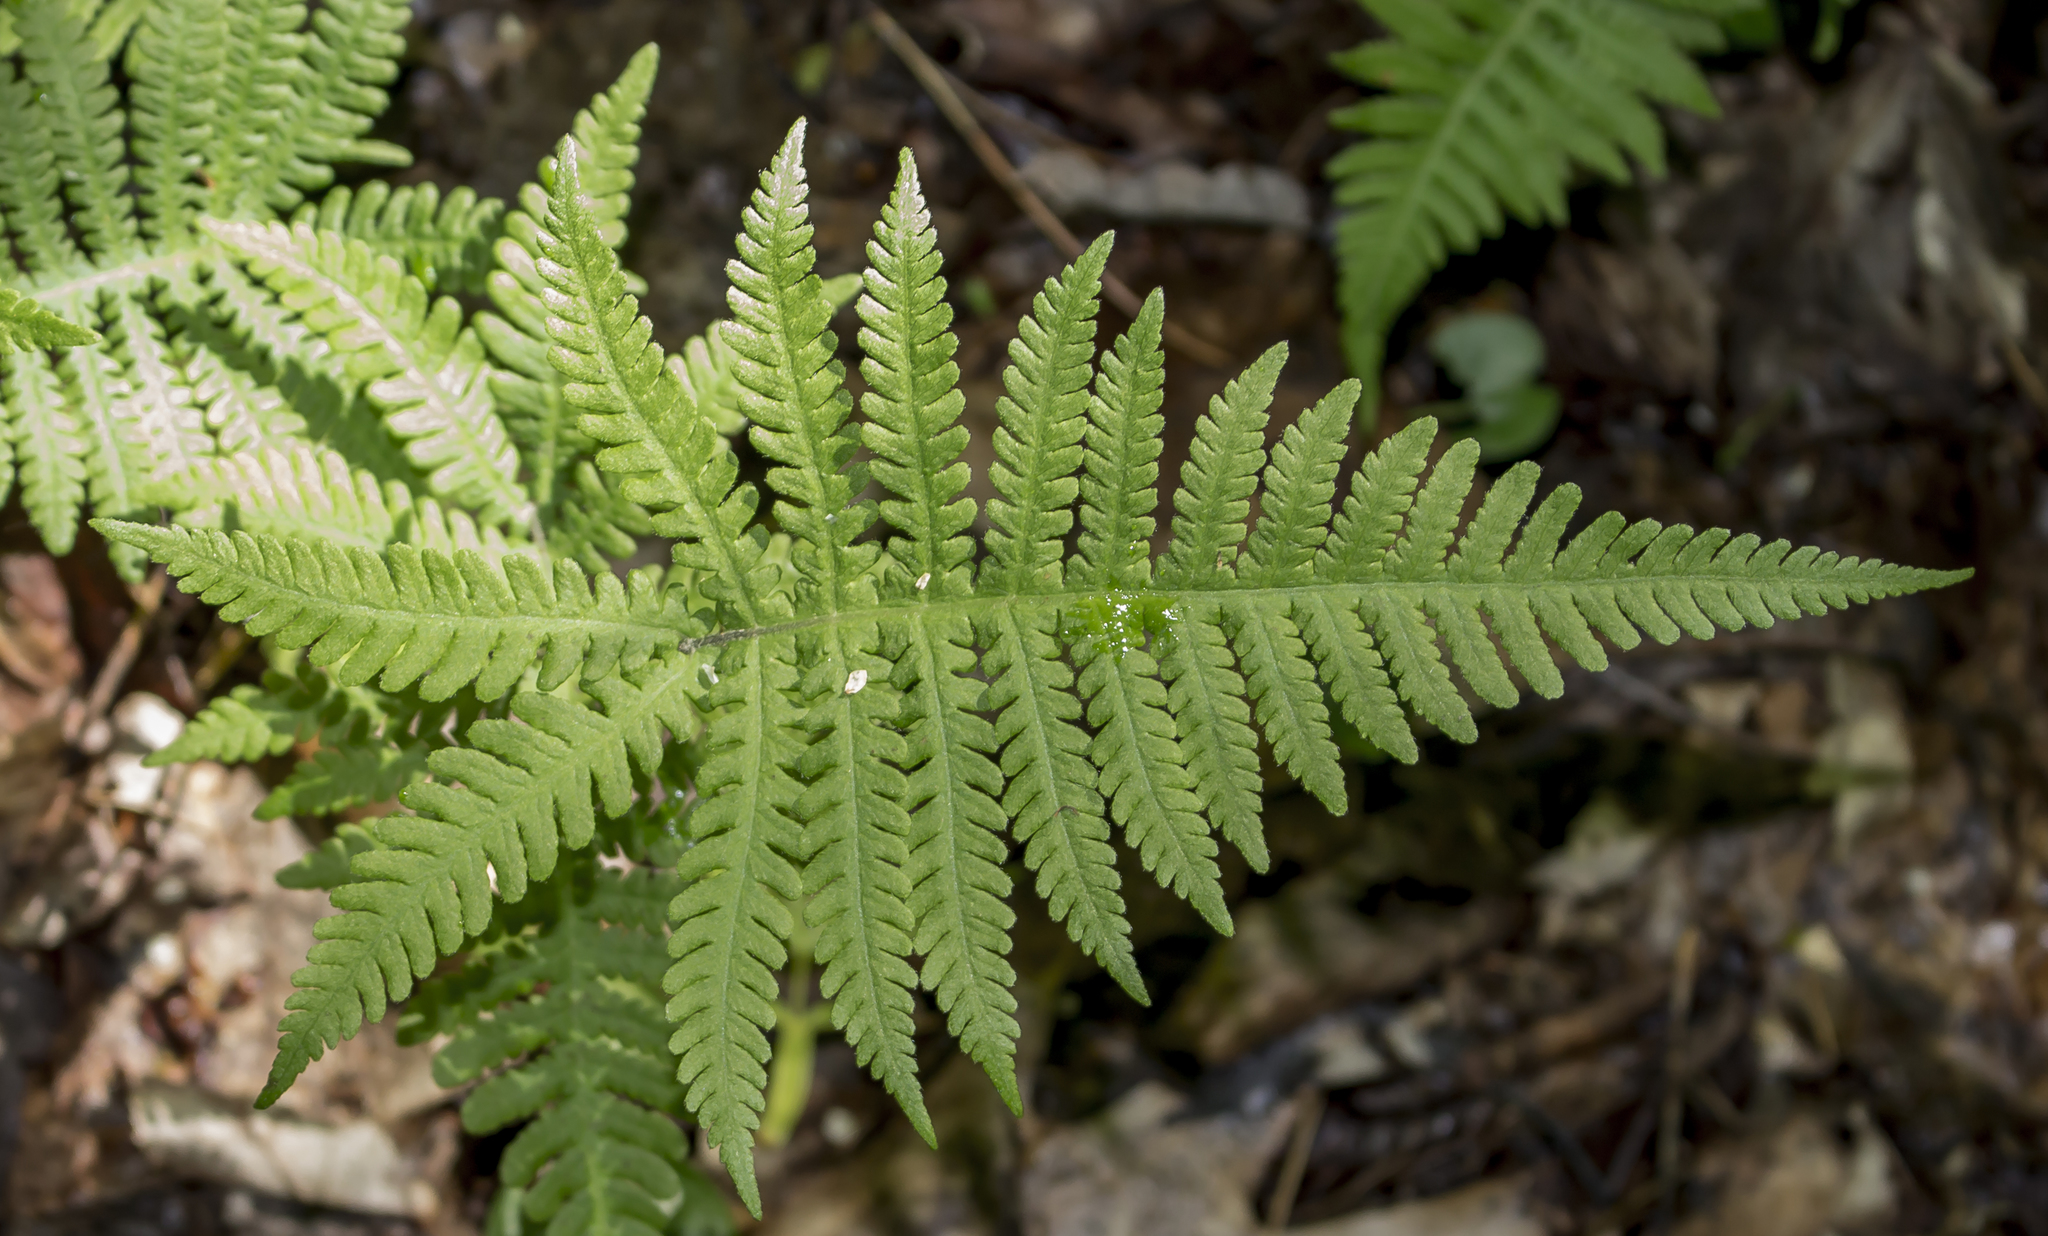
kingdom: Plantae
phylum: Tracheophyta
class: Polypodiopsida
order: Polypodiales
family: Thelypteridaceae
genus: Phegopteris
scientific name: Phegopteris connectilis
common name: Beech fern
